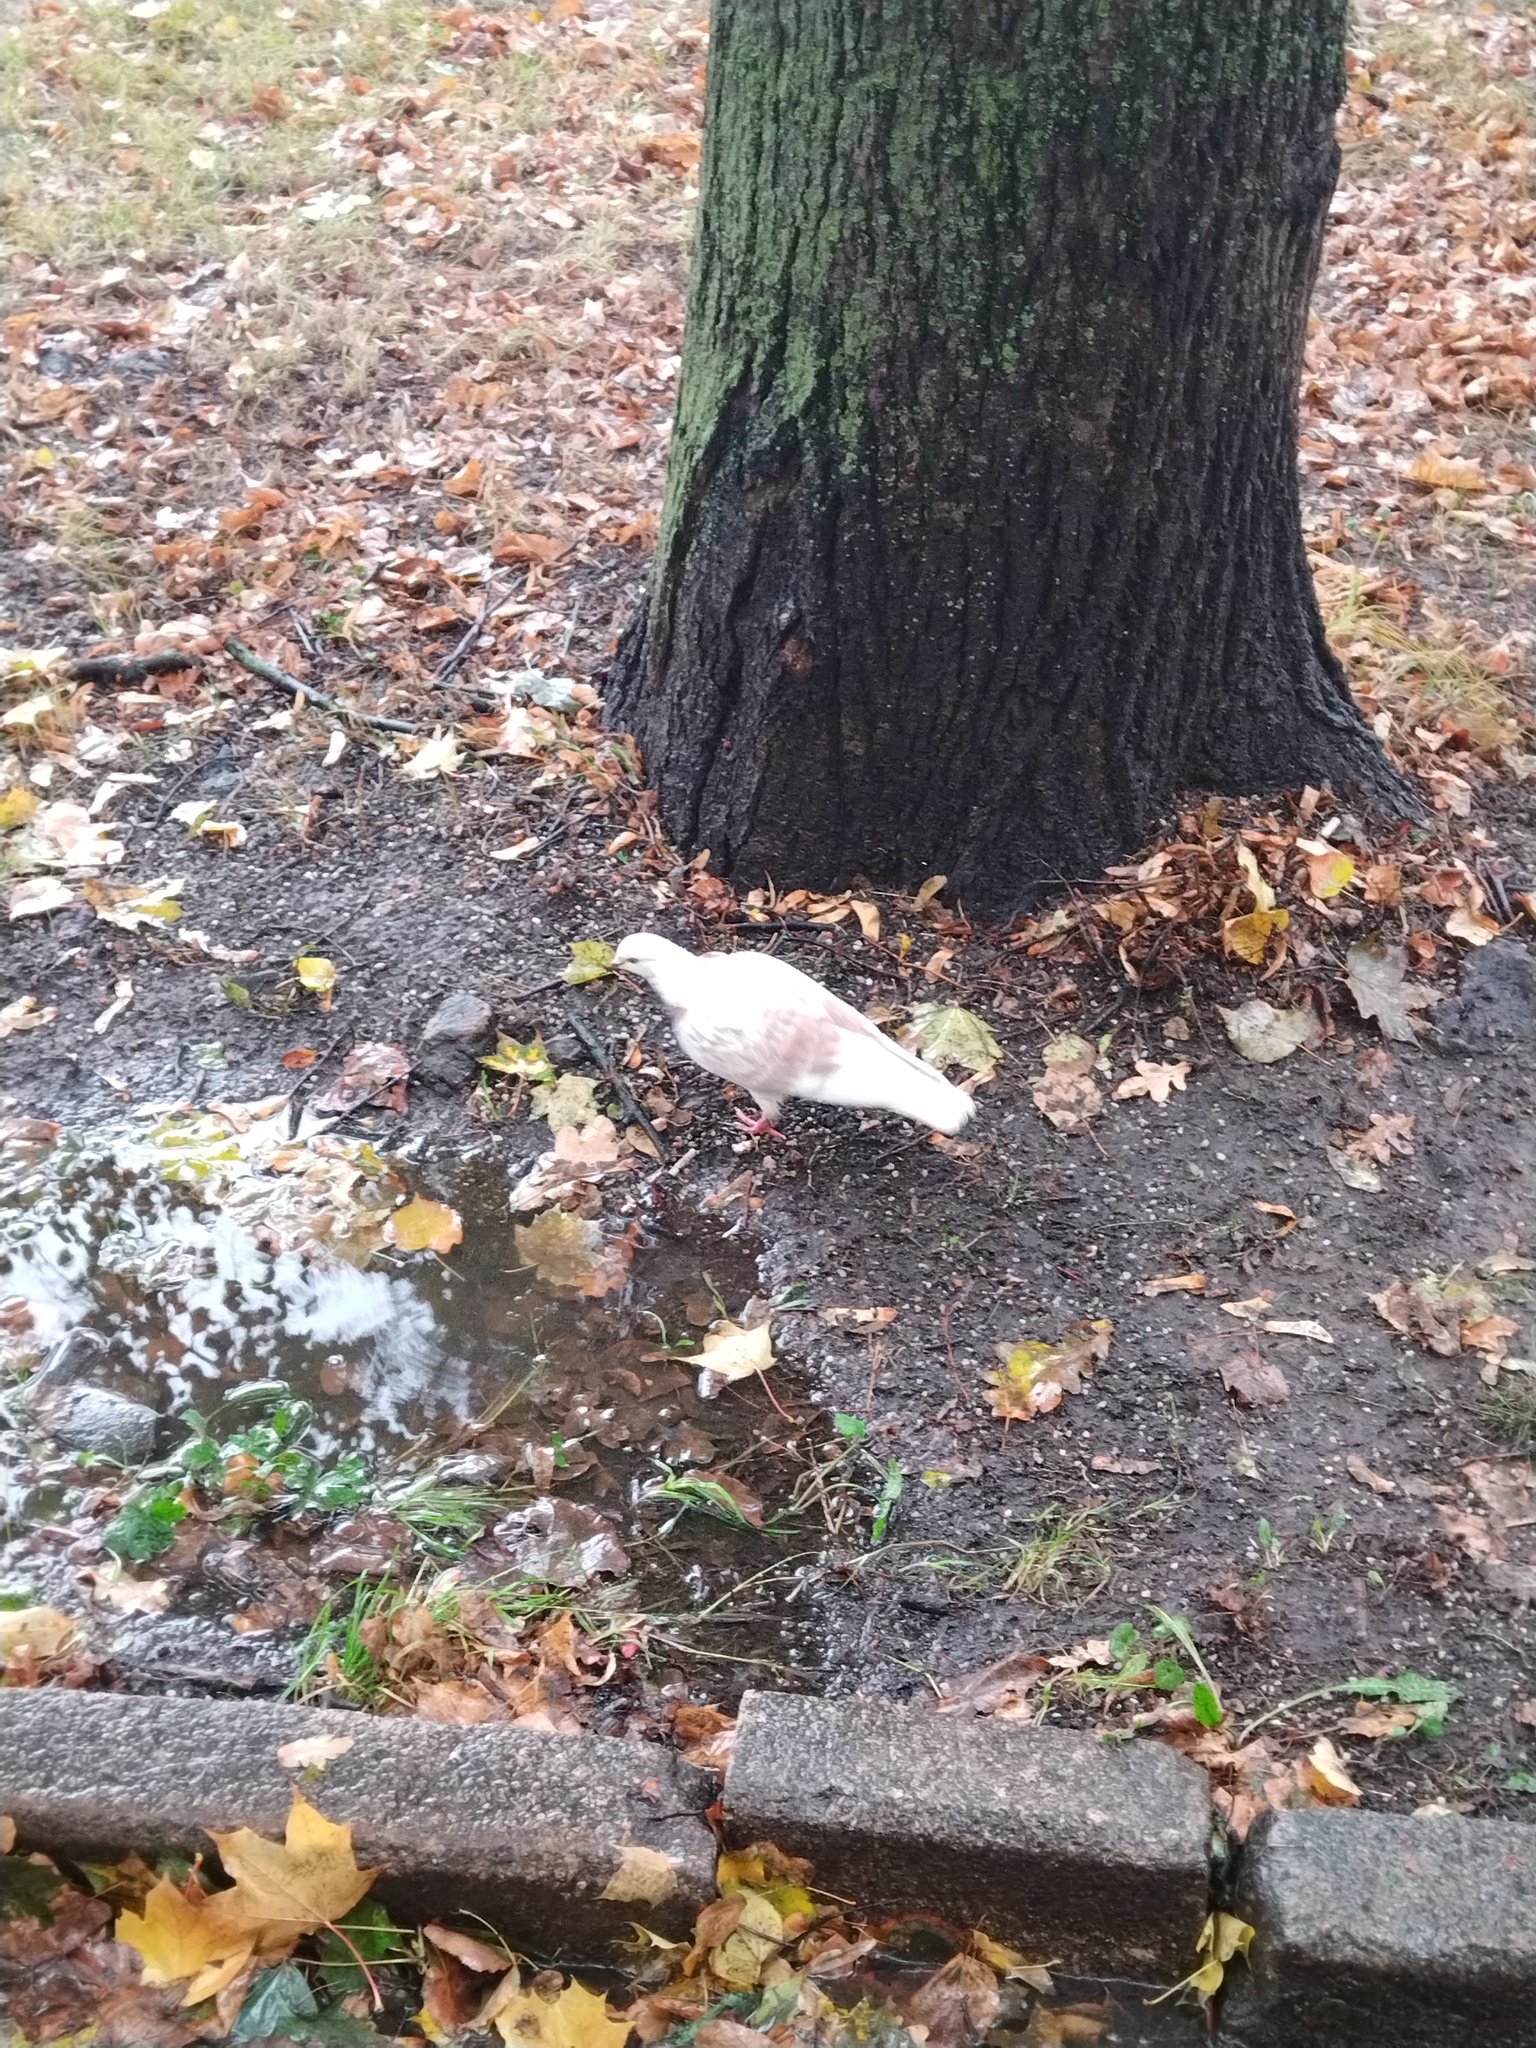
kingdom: Animalia
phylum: Chordata
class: Aves
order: Columbiformes
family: Columbidae
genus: Columba
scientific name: Columba livia
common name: Rock pigeon
